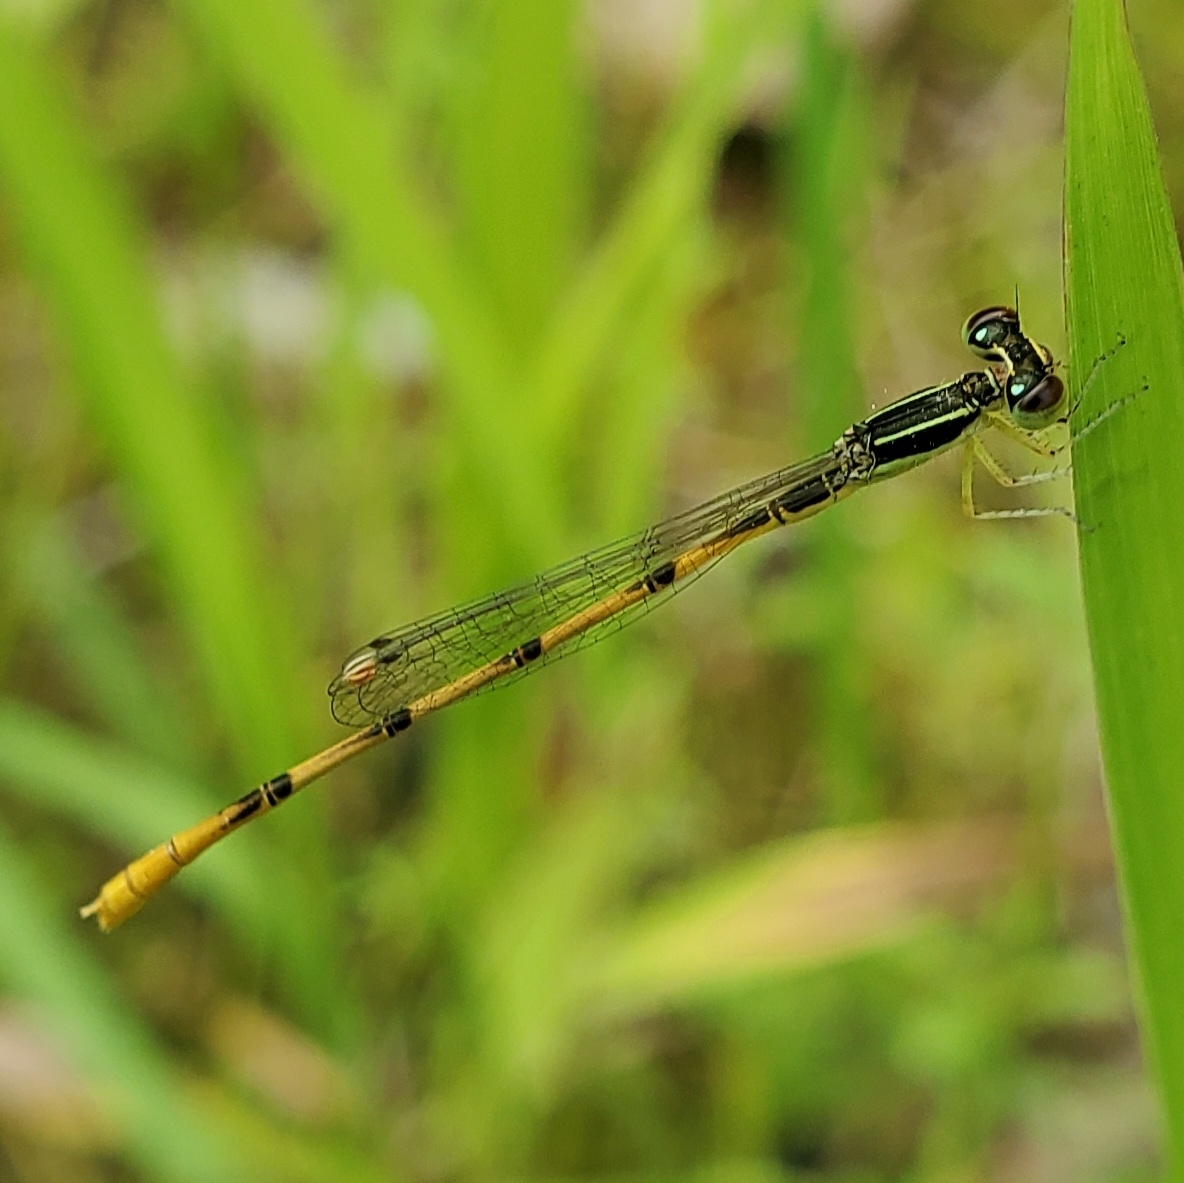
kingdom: Animalia
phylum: Arthropoda
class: Insecta
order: Odonata
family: Coenagrionidae
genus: Ischnura
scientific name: Ischnura hastata
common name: Citrine forktail
